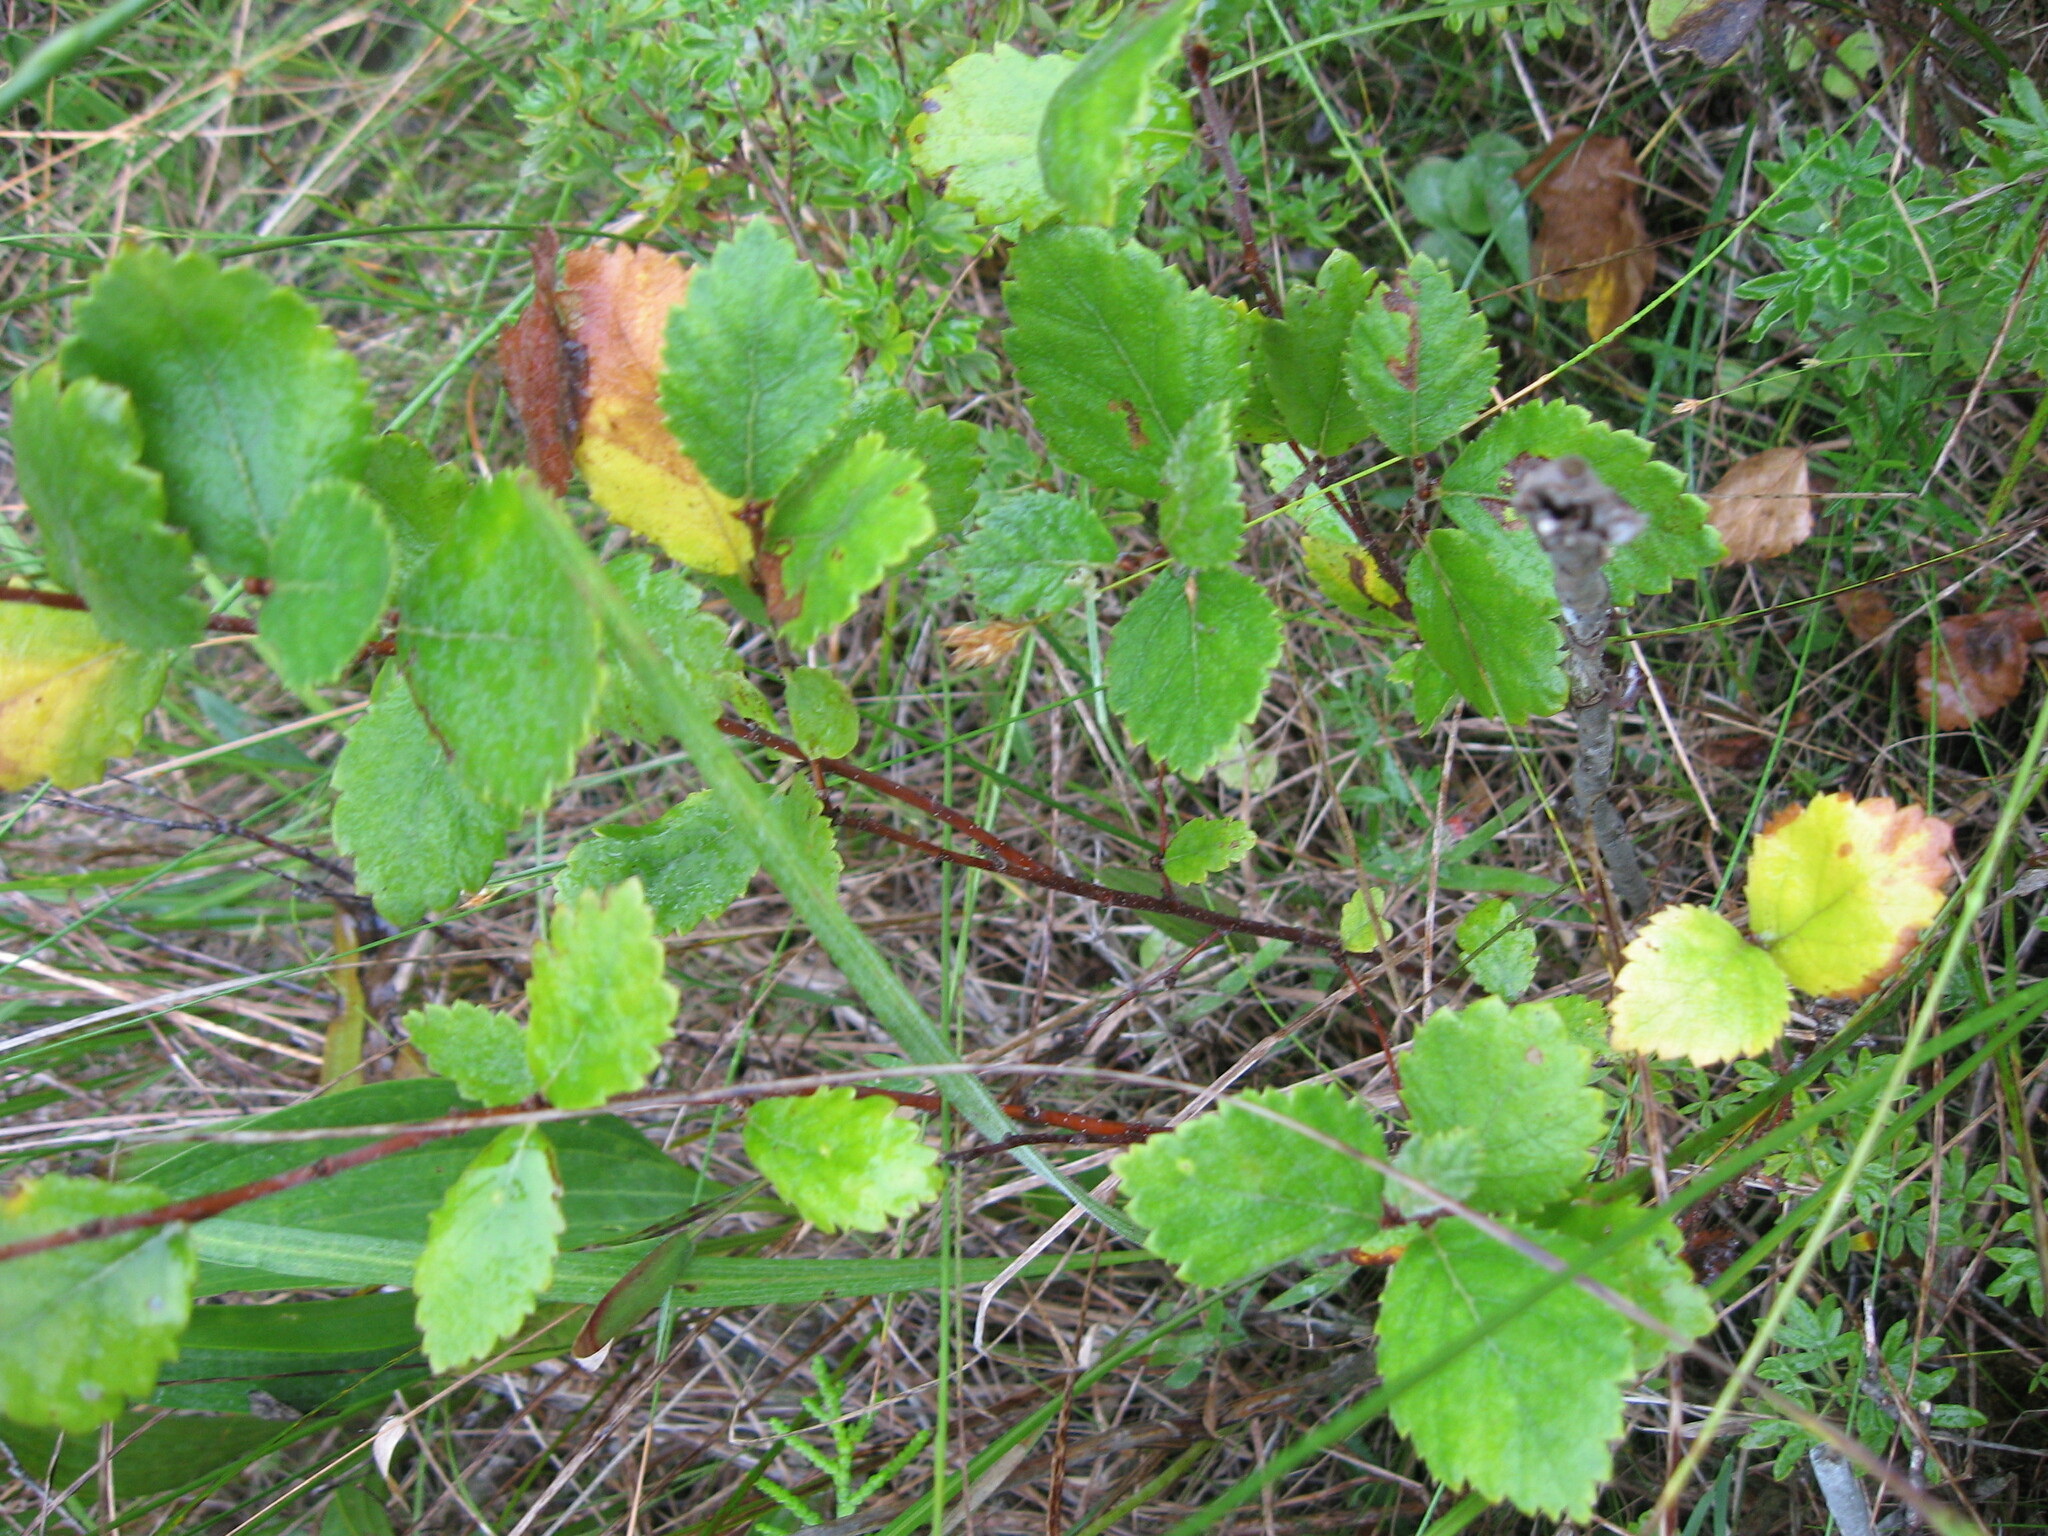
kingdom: Plantae
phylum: Tracheophyta
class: Magnoliopsida
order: Fagales
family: Betulaceae
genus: Betula
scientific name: Betula pumila
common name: Bog birch
